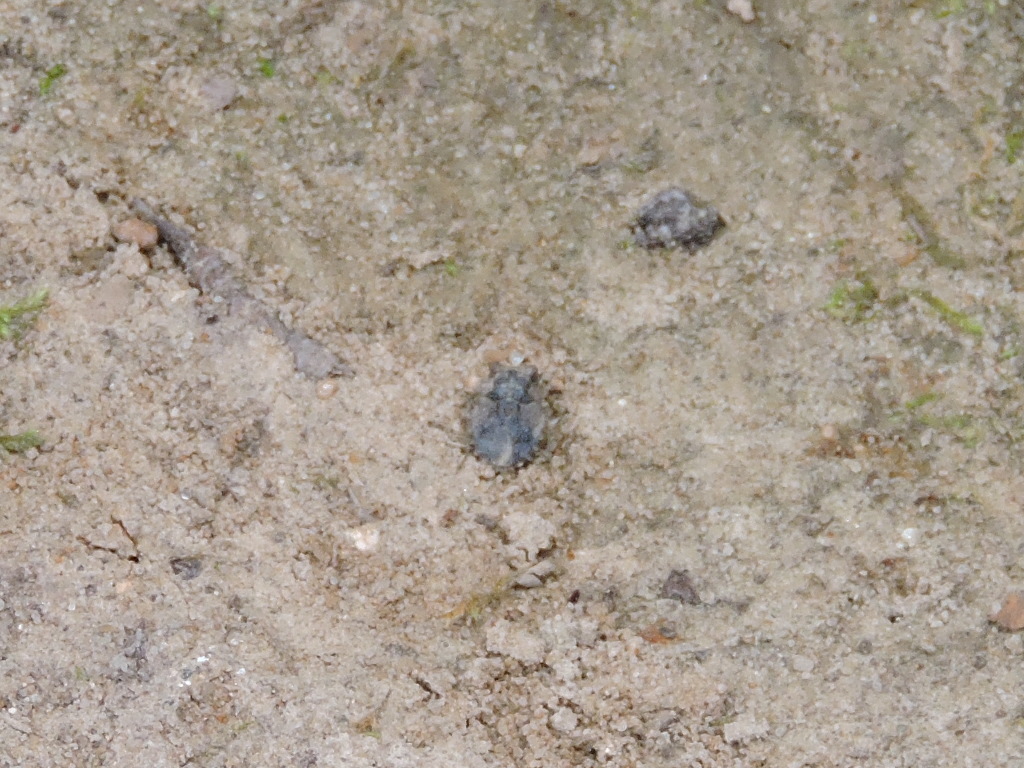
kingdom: Animalia
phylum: Arthropoda
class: Insecta
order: Hemiptera
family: Gelastocoridae
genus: Gelastocoris
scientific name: Gelastocoris oculatus
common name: Toad bug
